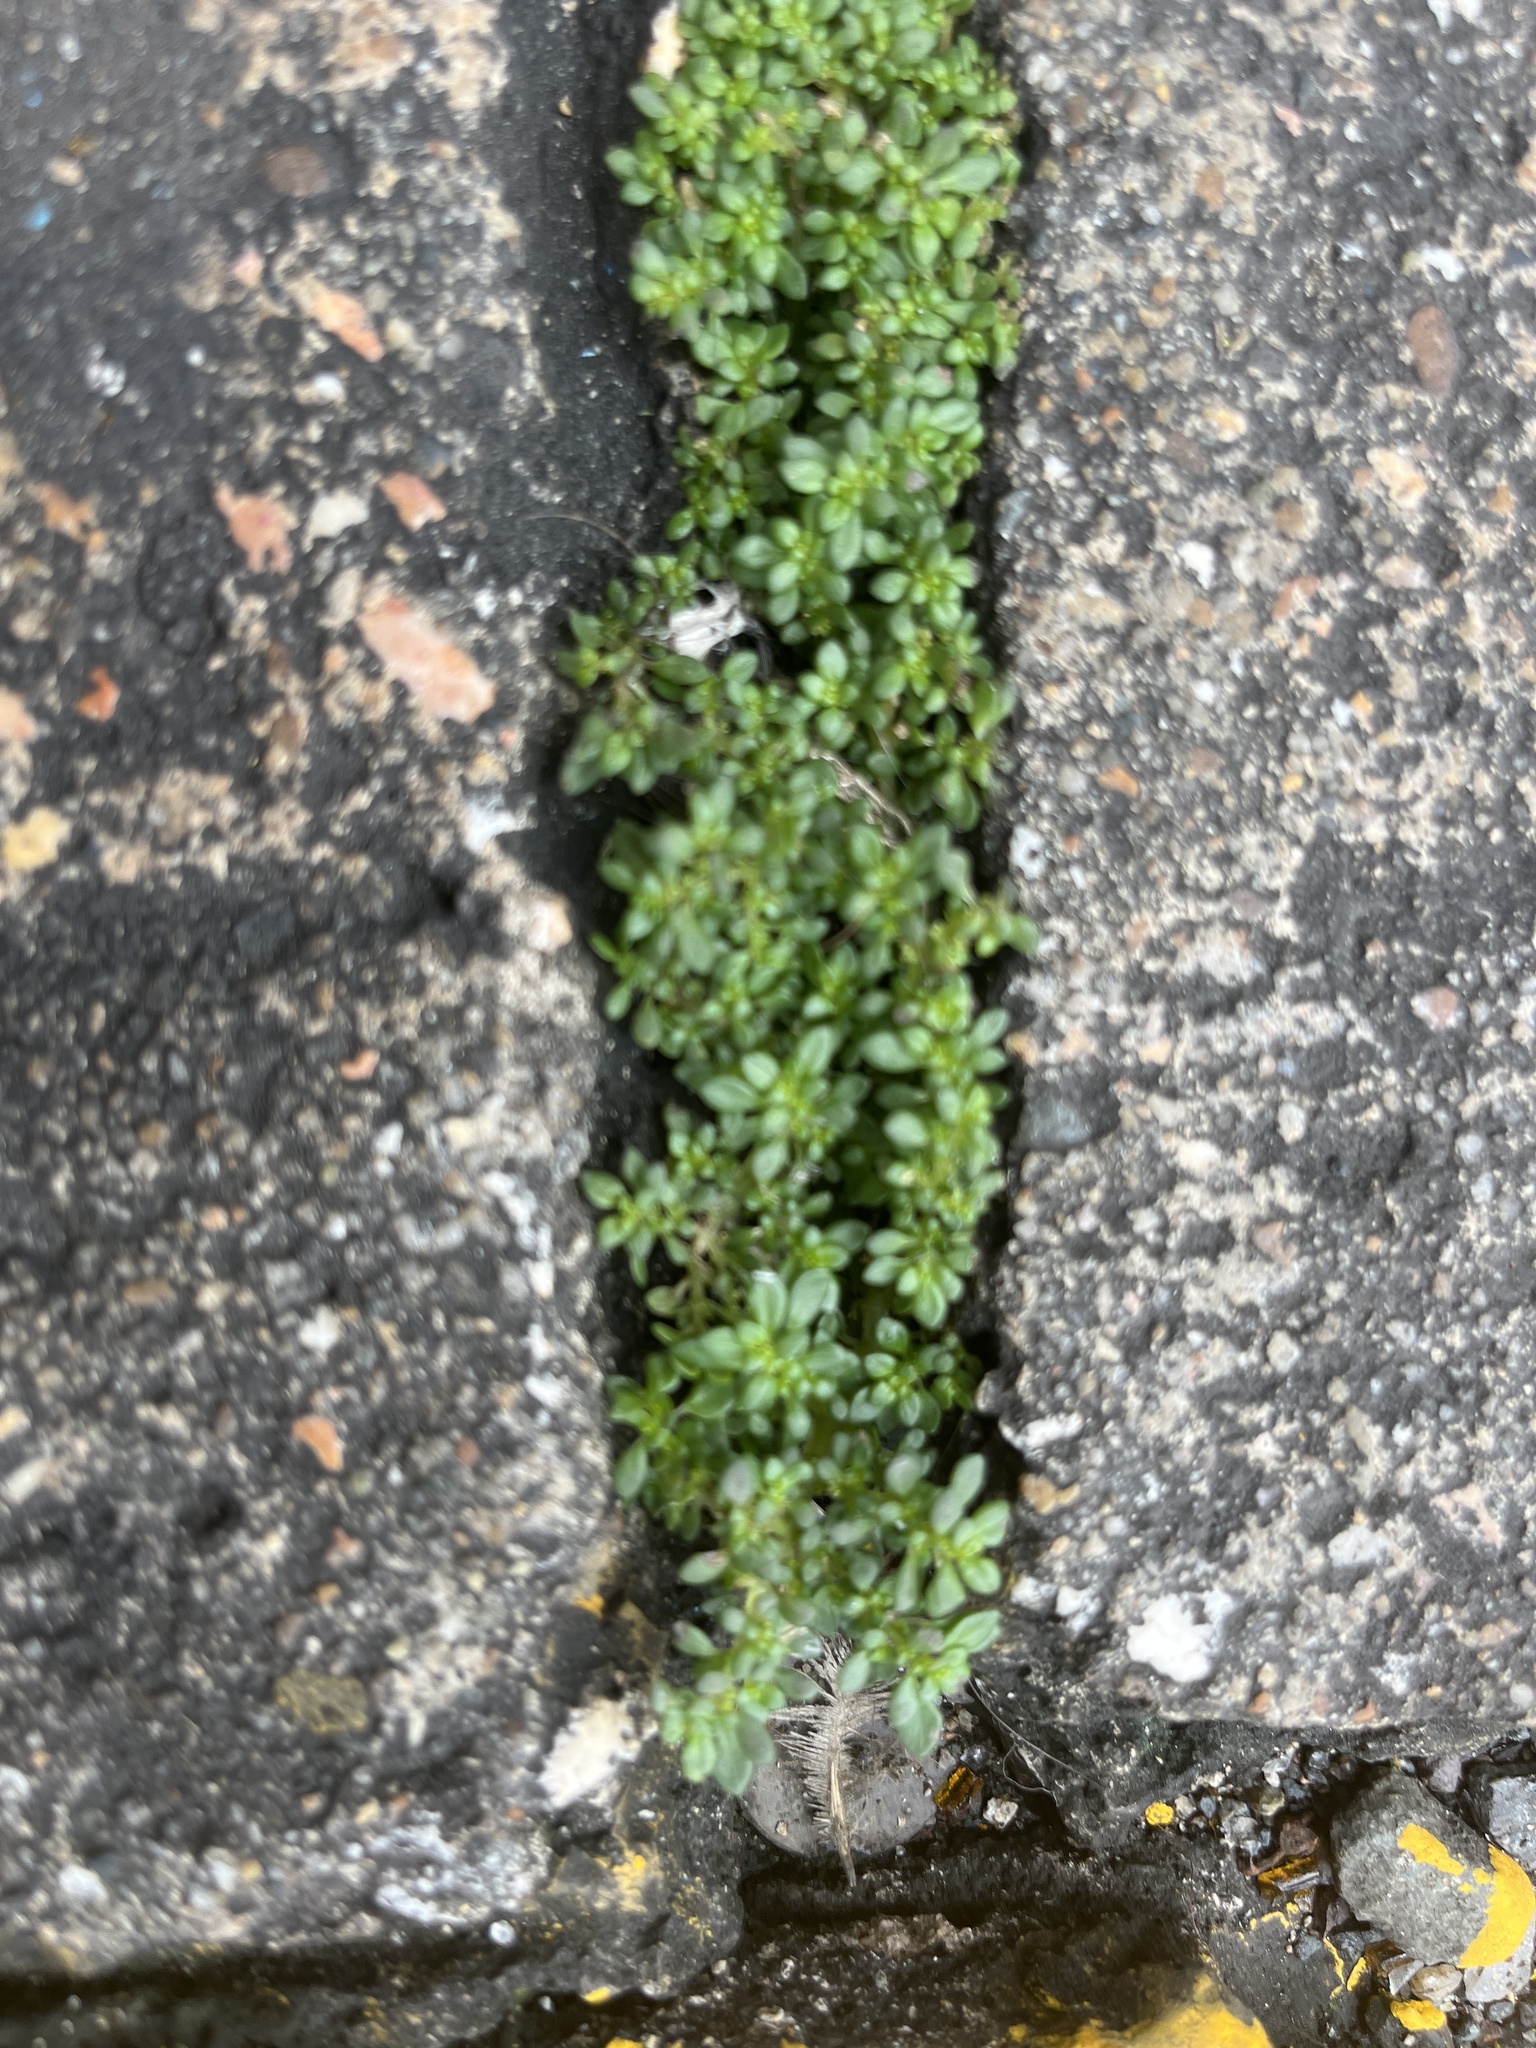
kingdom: Plantae
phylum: Tracheophyta
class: Magnoliopsida
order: Rosales
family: Urticaceae
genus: Pilea
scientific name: Pilea microphylla
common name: Artillery-plant
